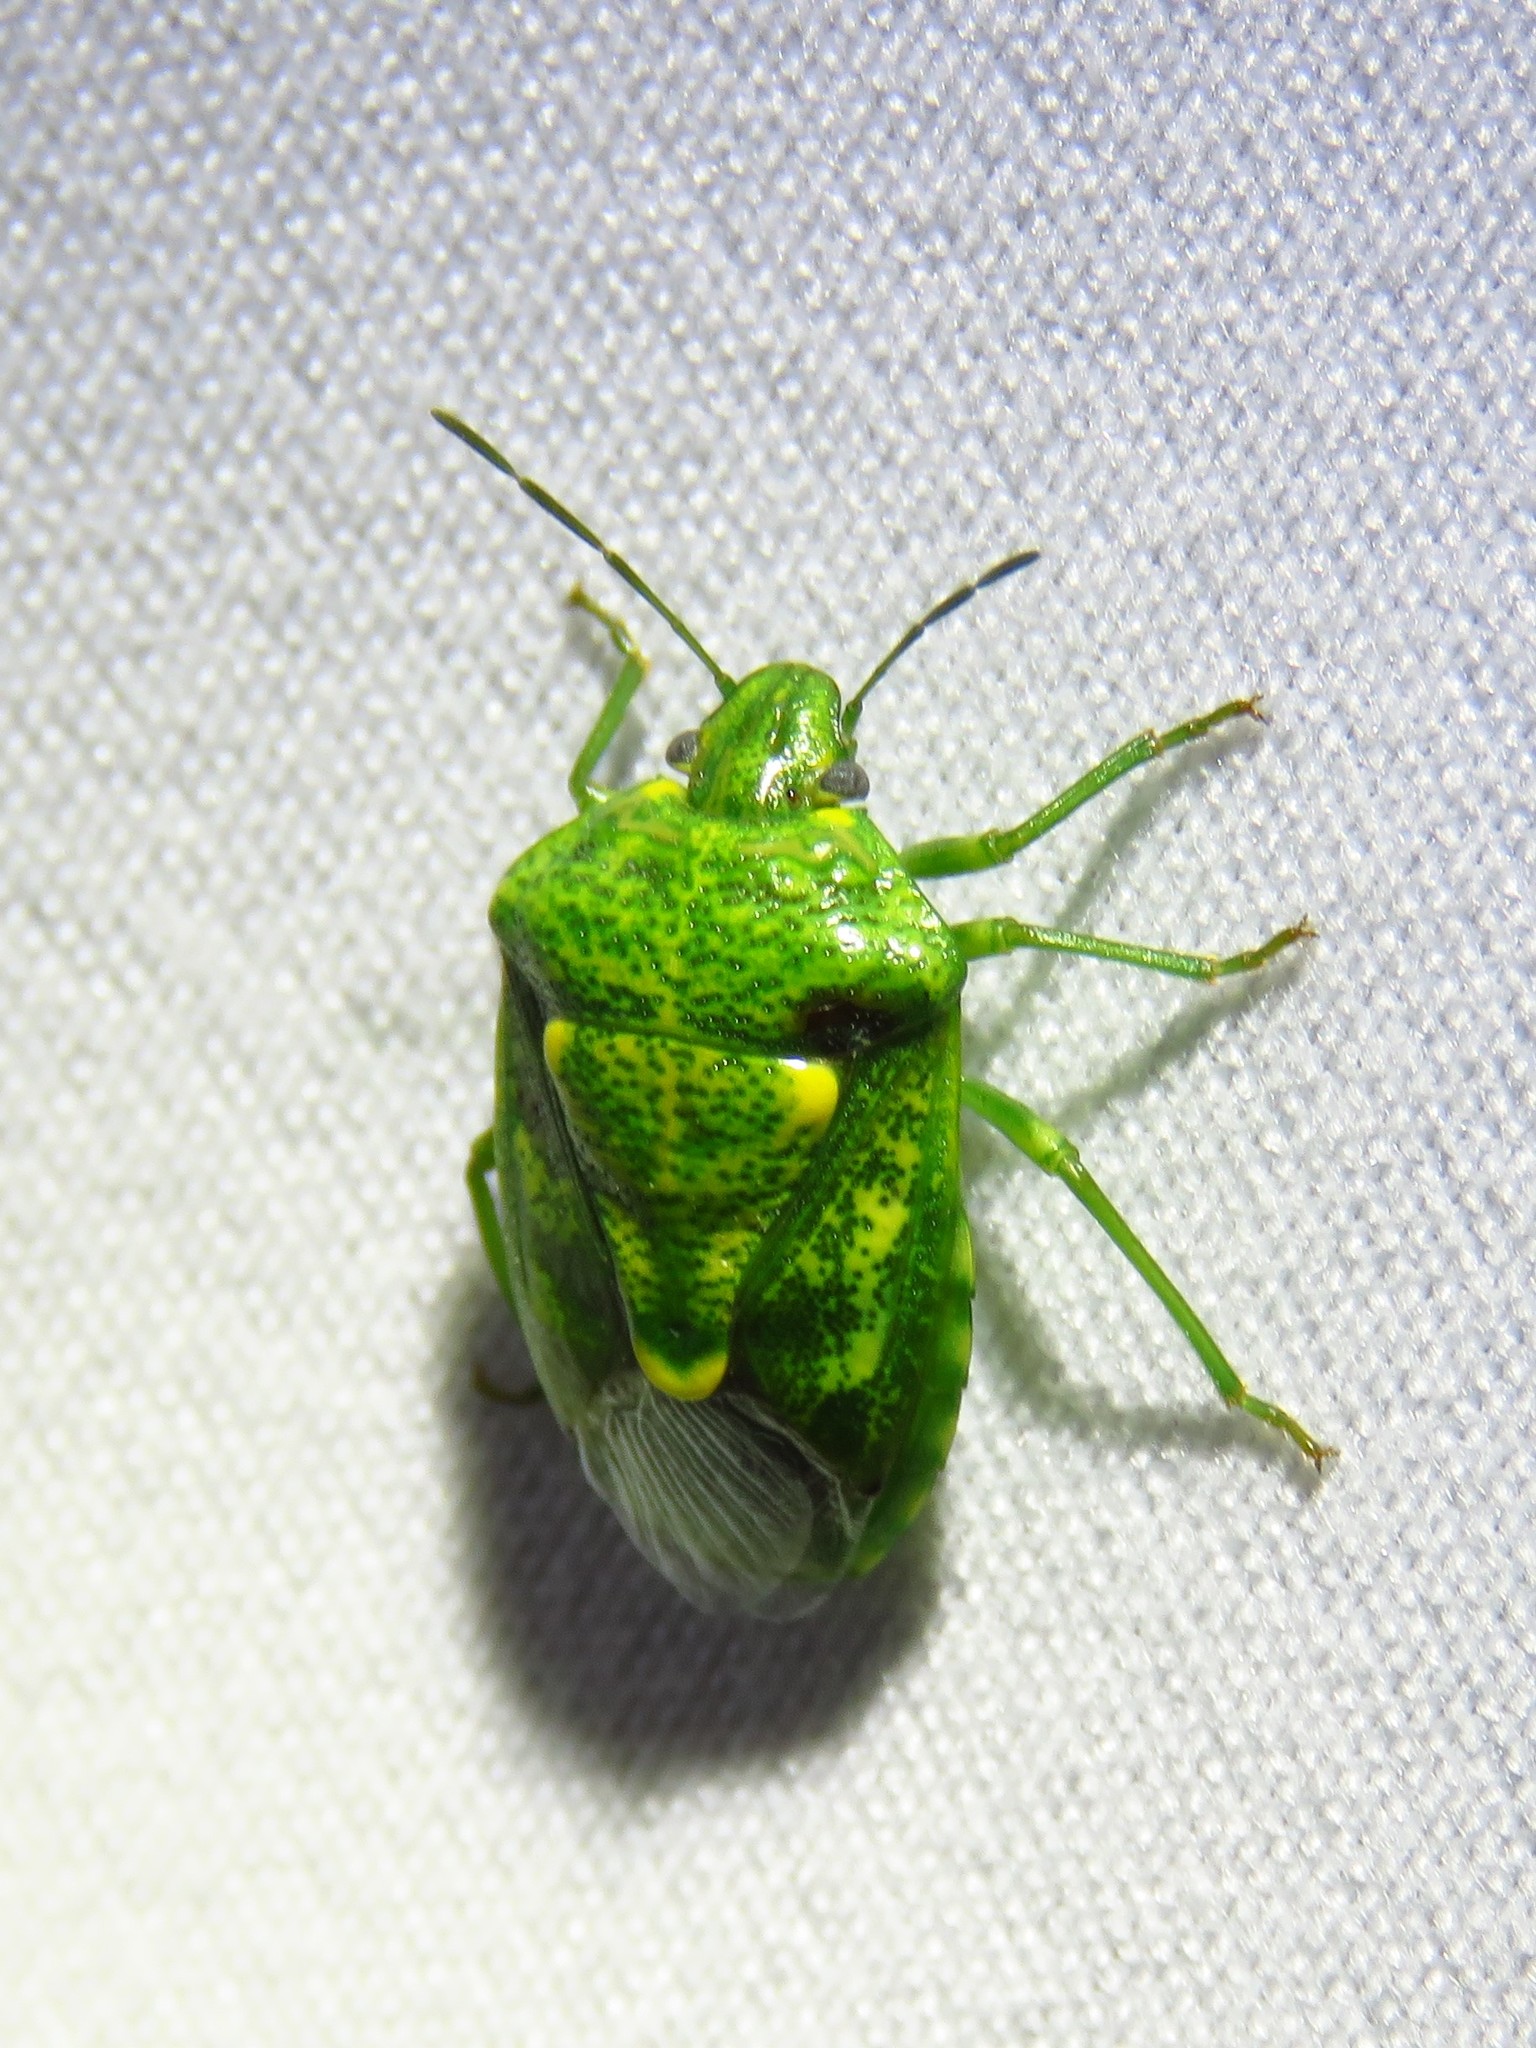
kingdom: Animalia
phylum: Arthropoda
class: Insecta
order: Hemiptera
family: Pentatomidae
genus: Banasa
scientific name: Banasa euchlora
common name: Cedar berry bug
